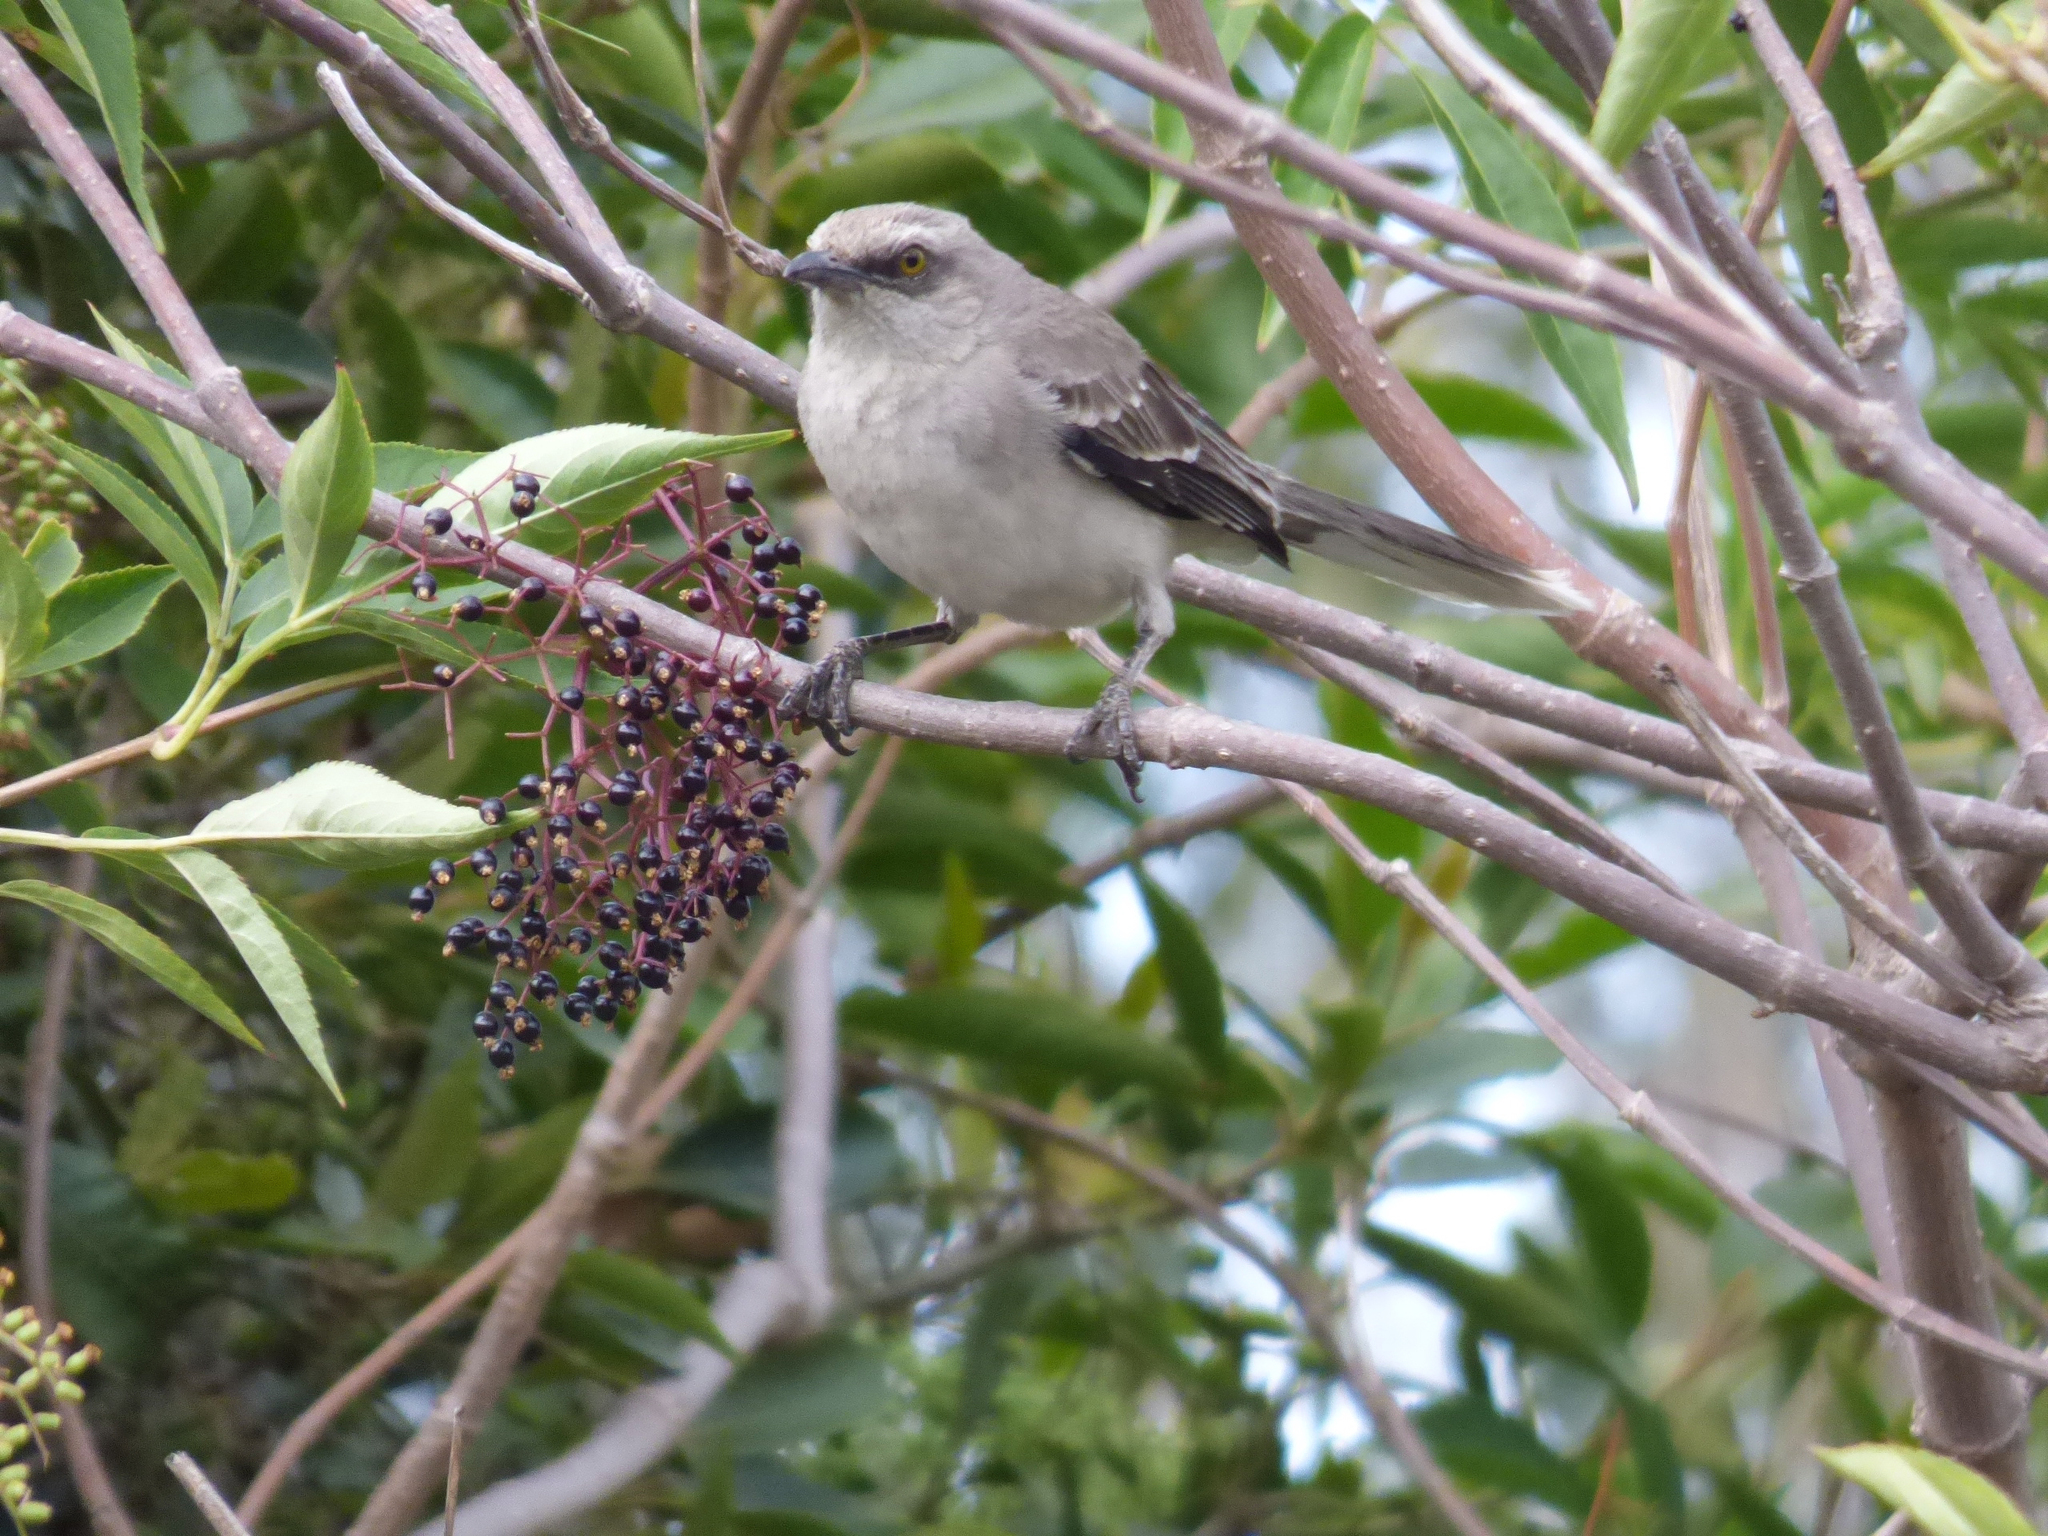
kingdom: Animalia
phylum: Chordata
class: Aves
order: Passeriformes
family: Mimidae
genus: Mimus
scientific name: Mimus gilvus
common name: Tropical mockingbird
